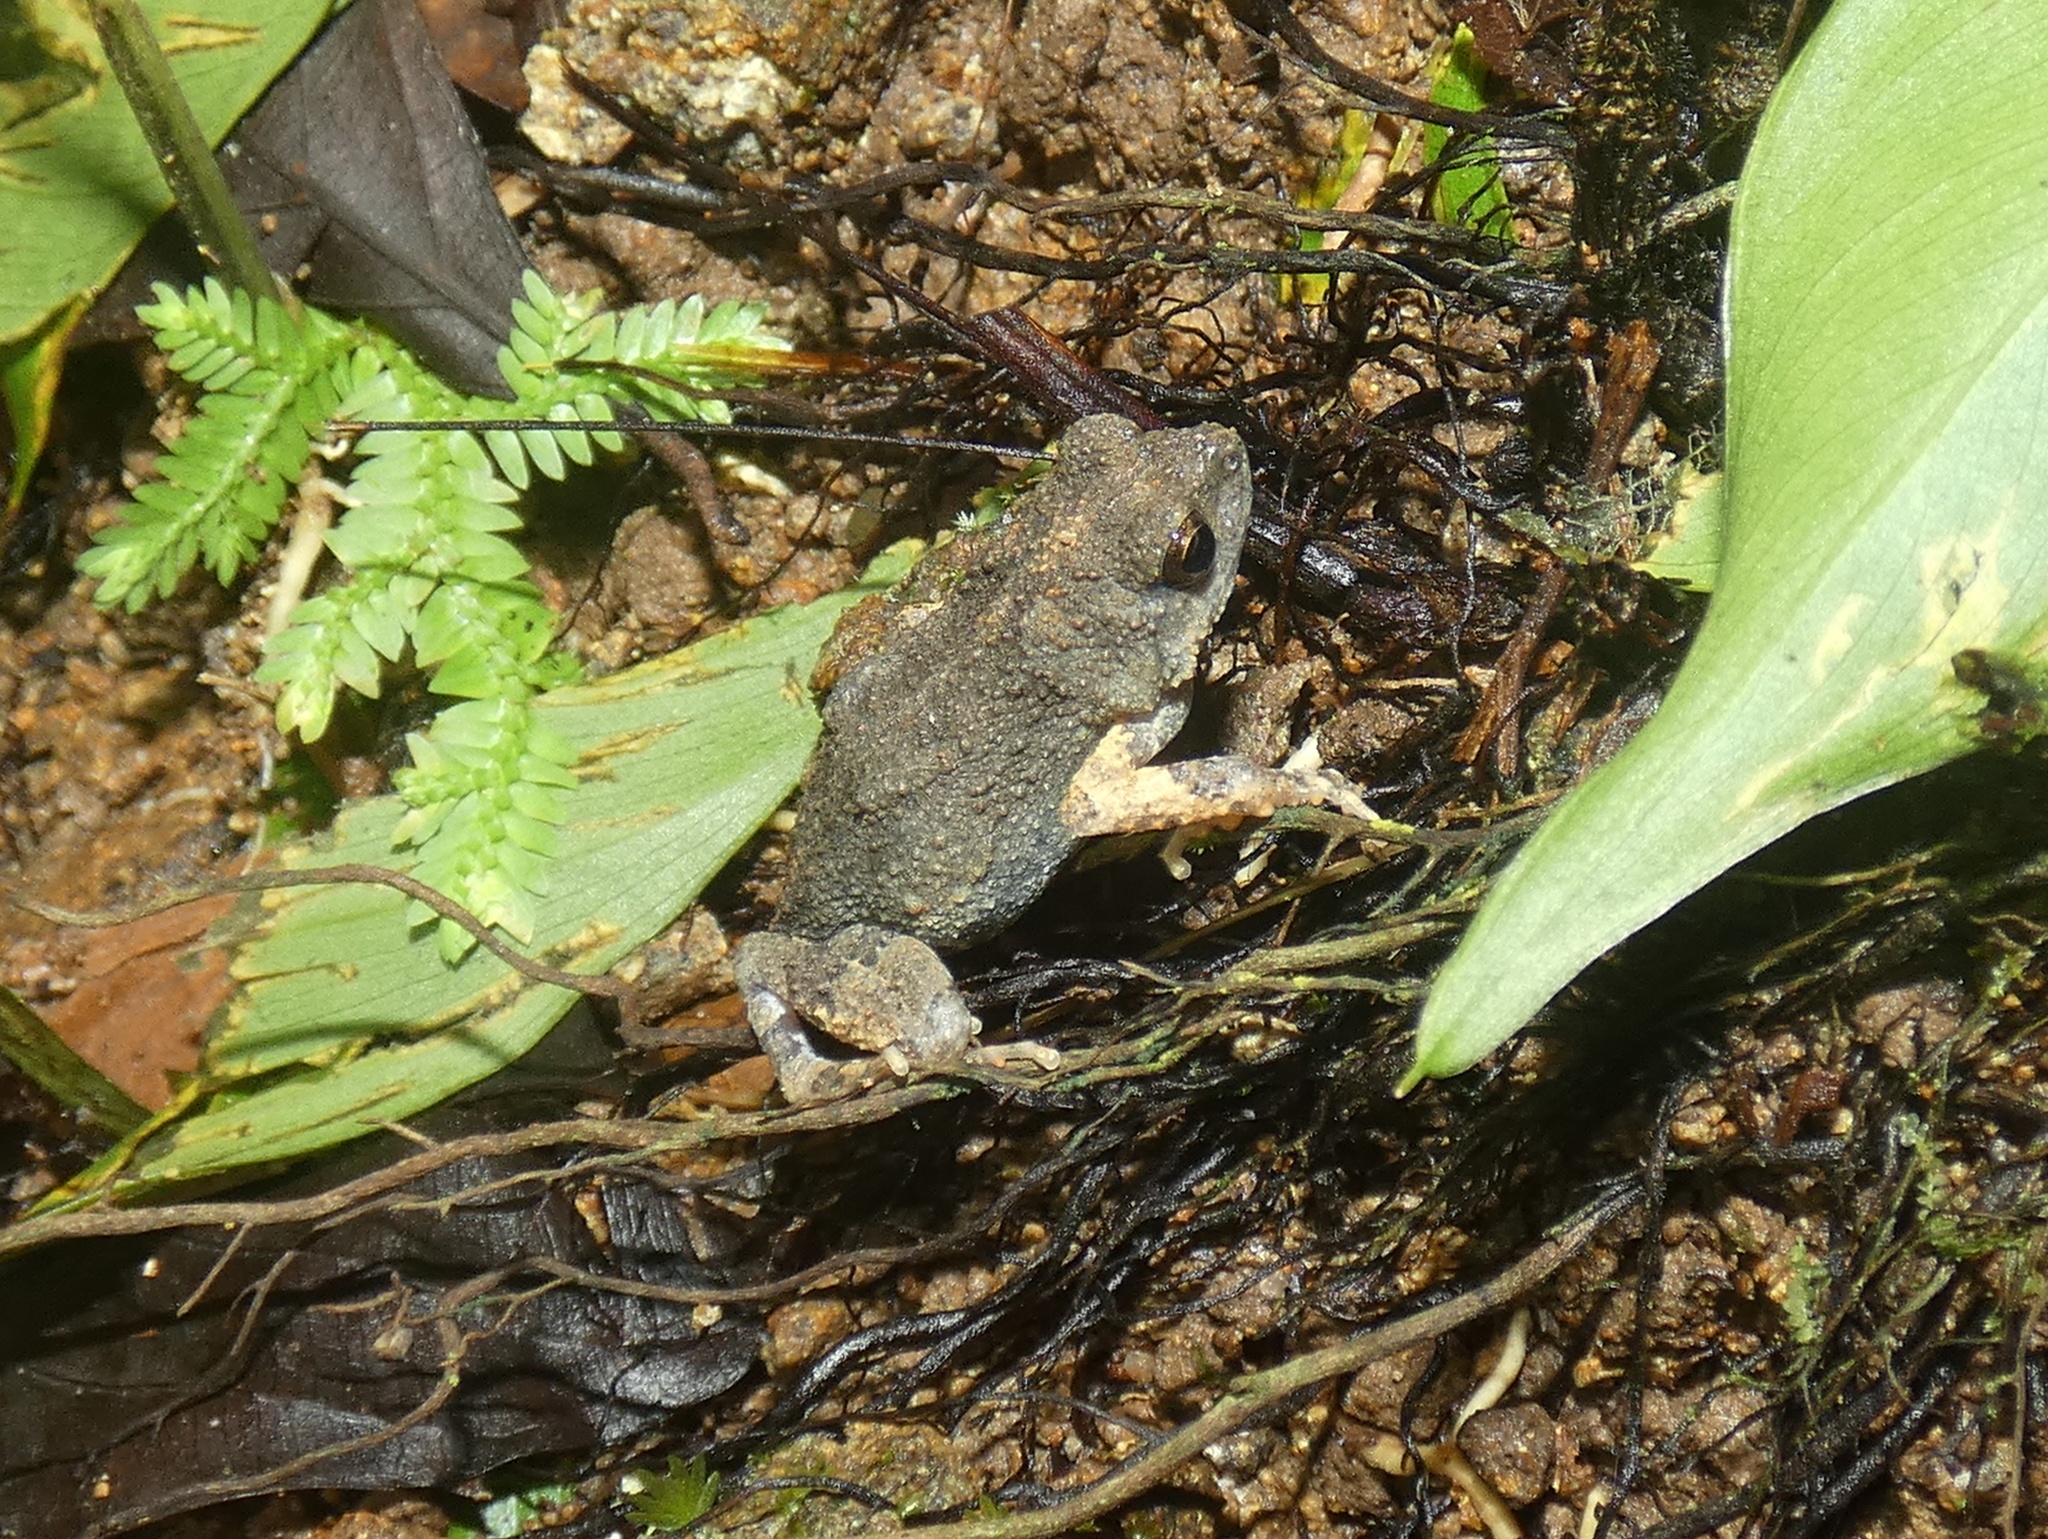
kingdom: Animalia
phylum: Chordata
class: Amphibia
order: Anura
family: Leptodactylidae
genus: Engystomops
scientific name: Engystomops pustulosus
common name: Tungara frog
